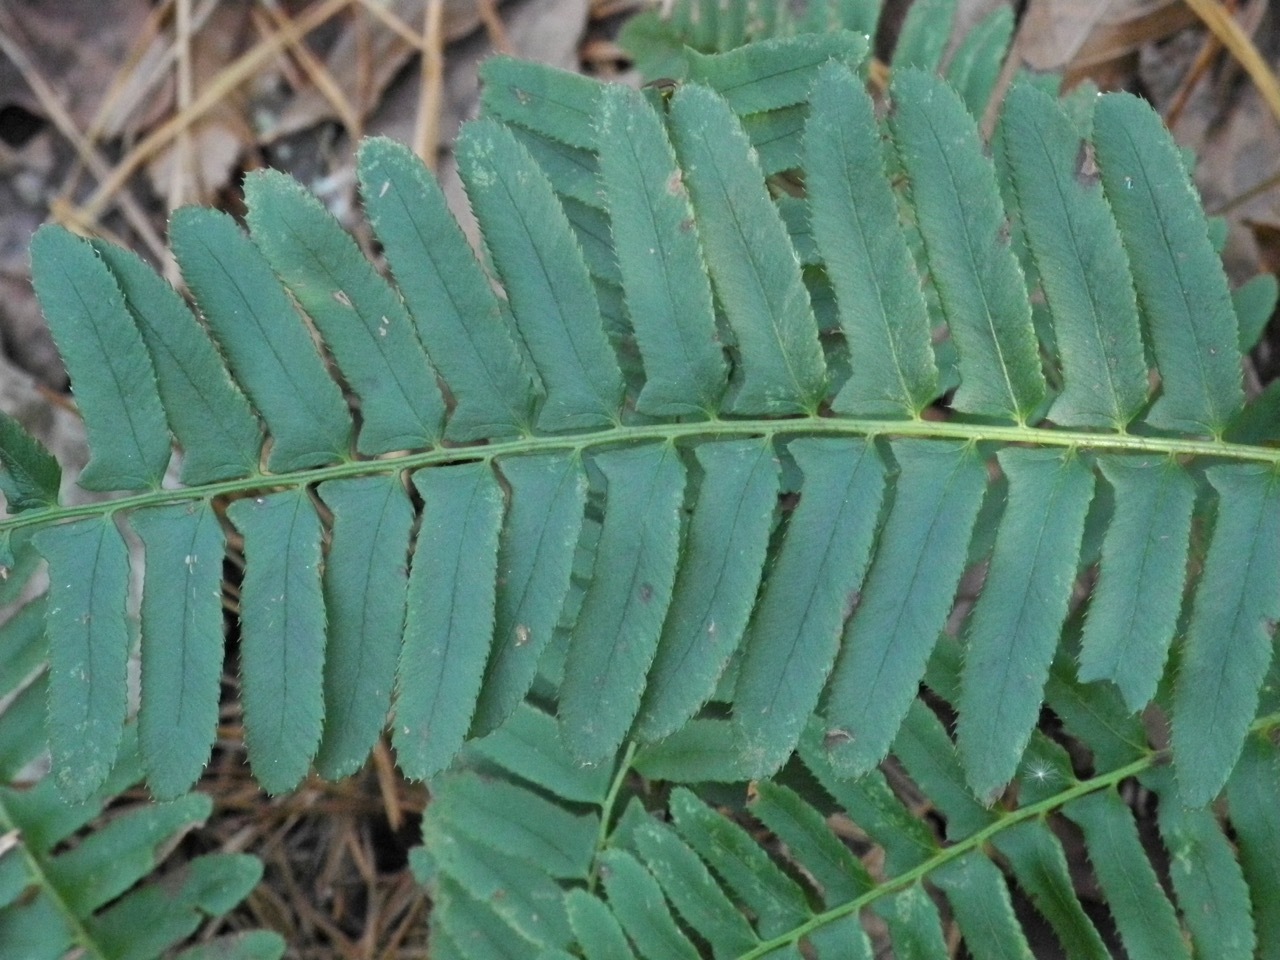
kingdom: Plantae
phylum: Tracheophyta
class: Polypodiopsida
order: Polypodiales
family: Dryopteridaceae
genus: Polystichum
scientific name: Polystichum acrostichoides
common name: Christmas fern
